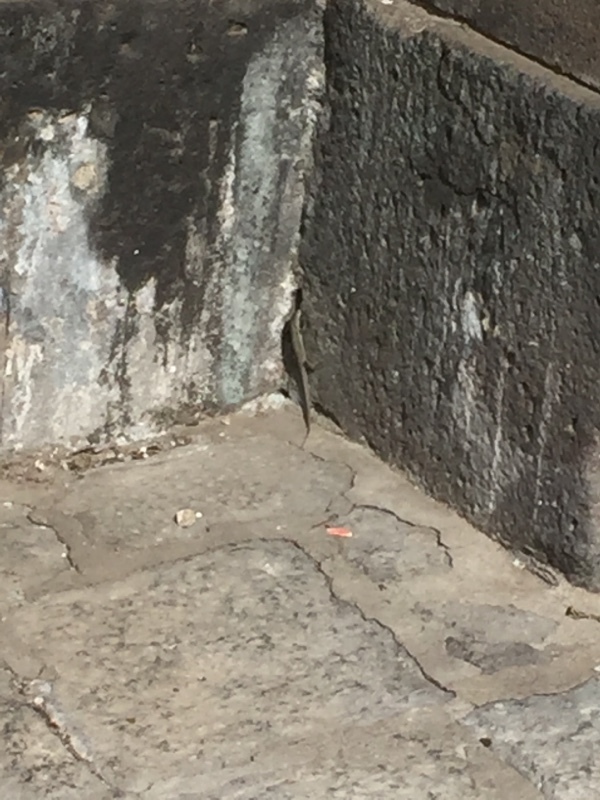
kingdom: Animalia
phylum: Chordata
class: Squamata
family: Lacertidae
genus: Podarcis
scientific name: Podarcis siculus
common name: Italian wall lizard
